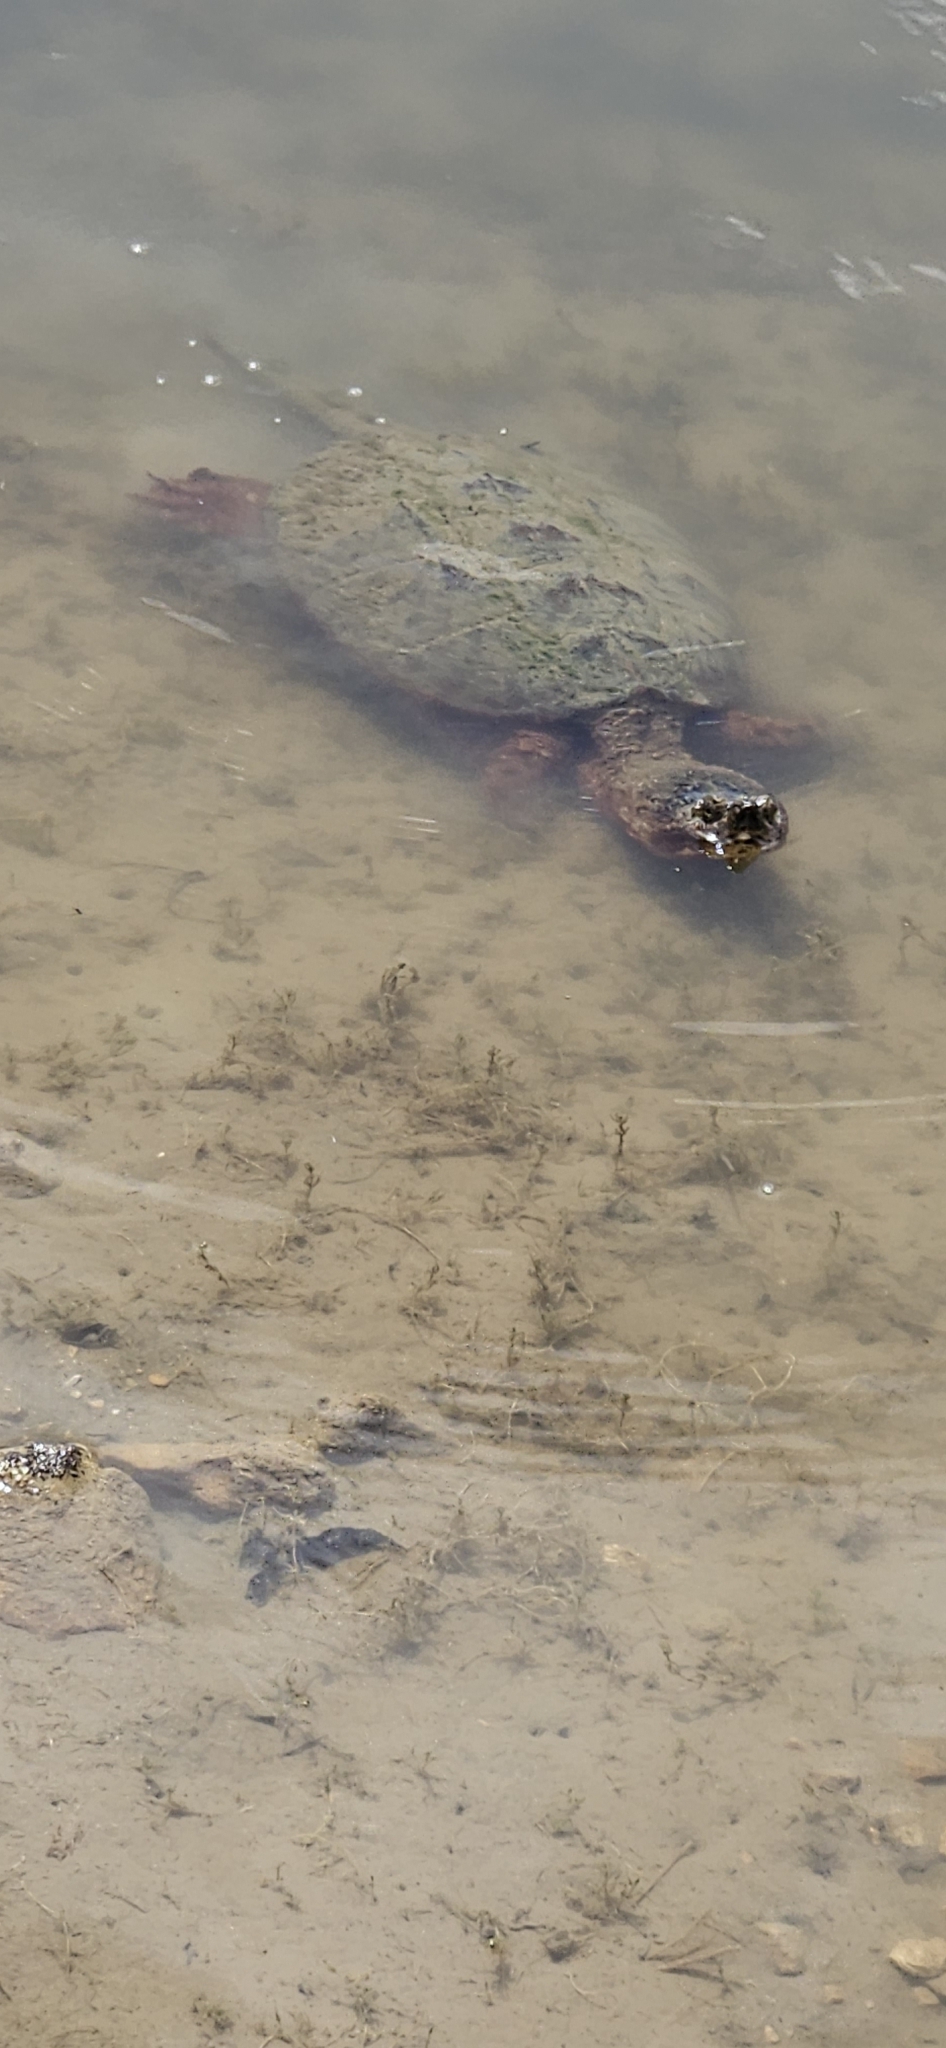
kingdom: Animalia
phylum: Chordata
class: Testudines
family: Chelydridae
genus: Chelydra
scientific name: Chelydra serpentina
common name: Common snapping turtle
